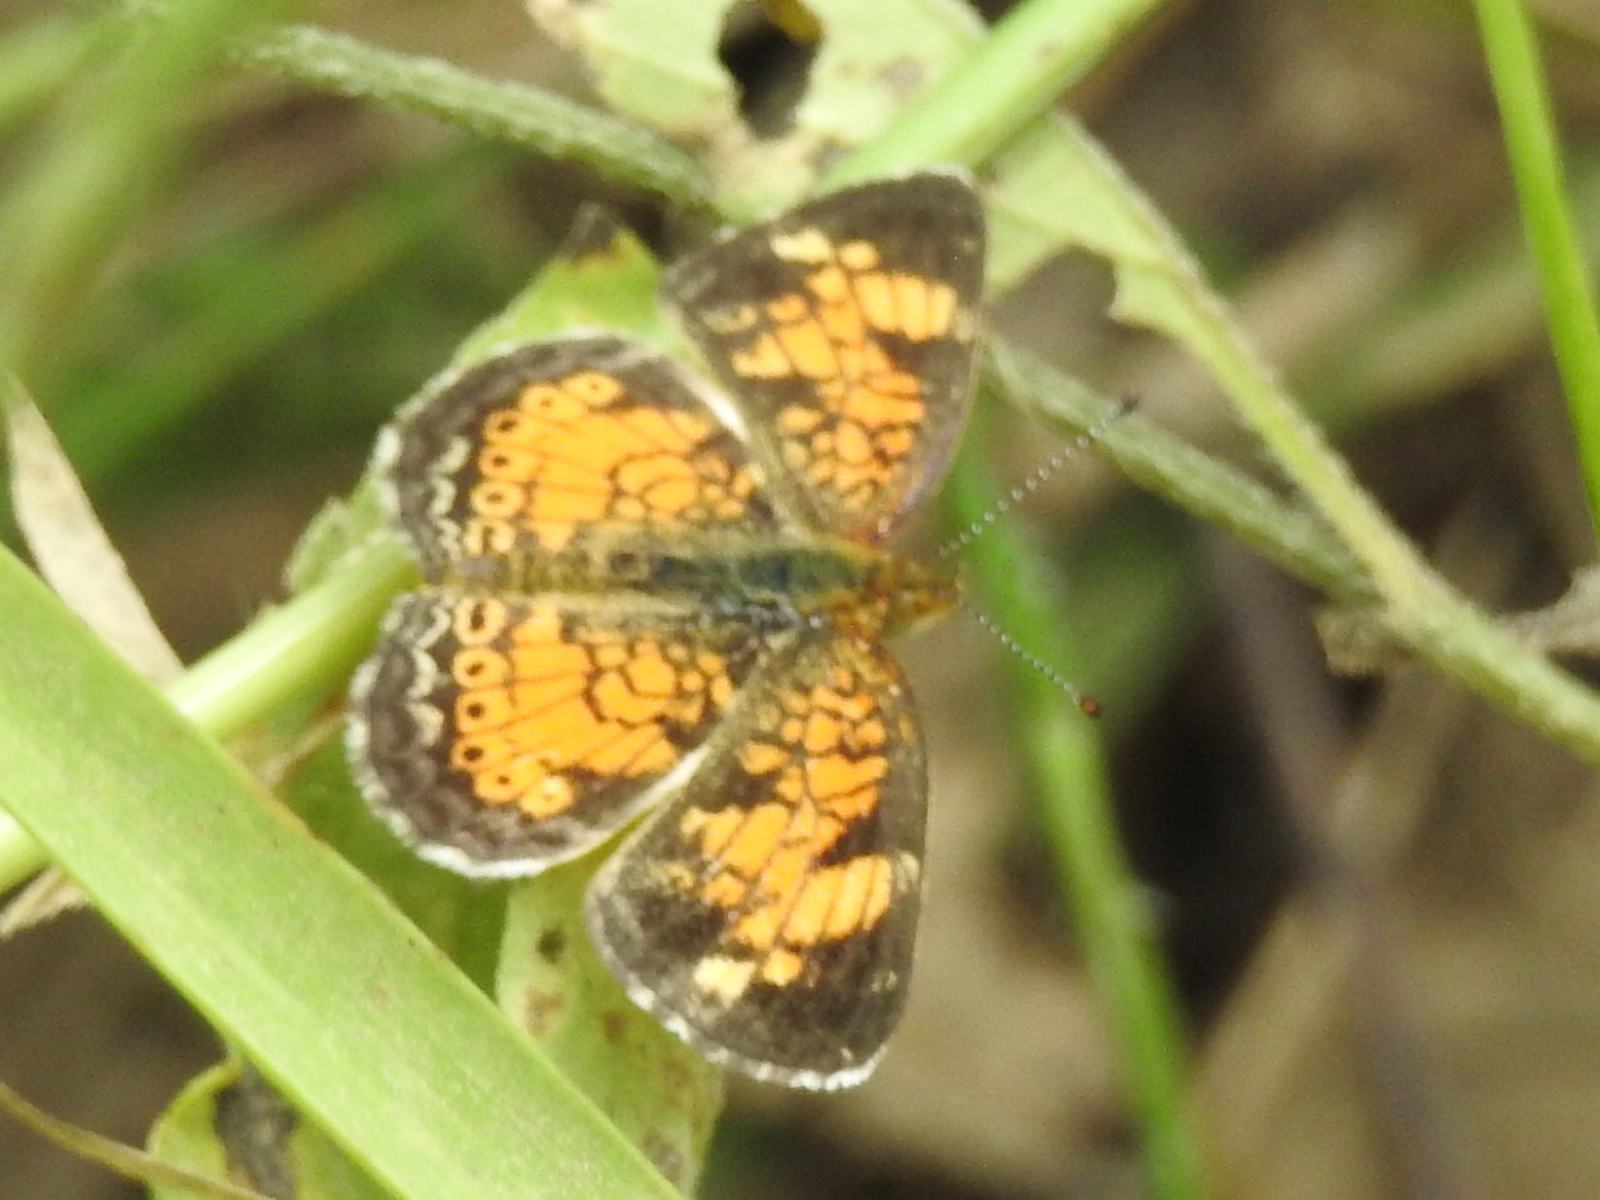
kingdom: Animalia
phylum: Arthropoda
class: Insecta
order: Lepidoptera
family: Nymphalidae
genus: Phyciodes
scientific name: Phyciodes tharos
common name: Pearl crescent
